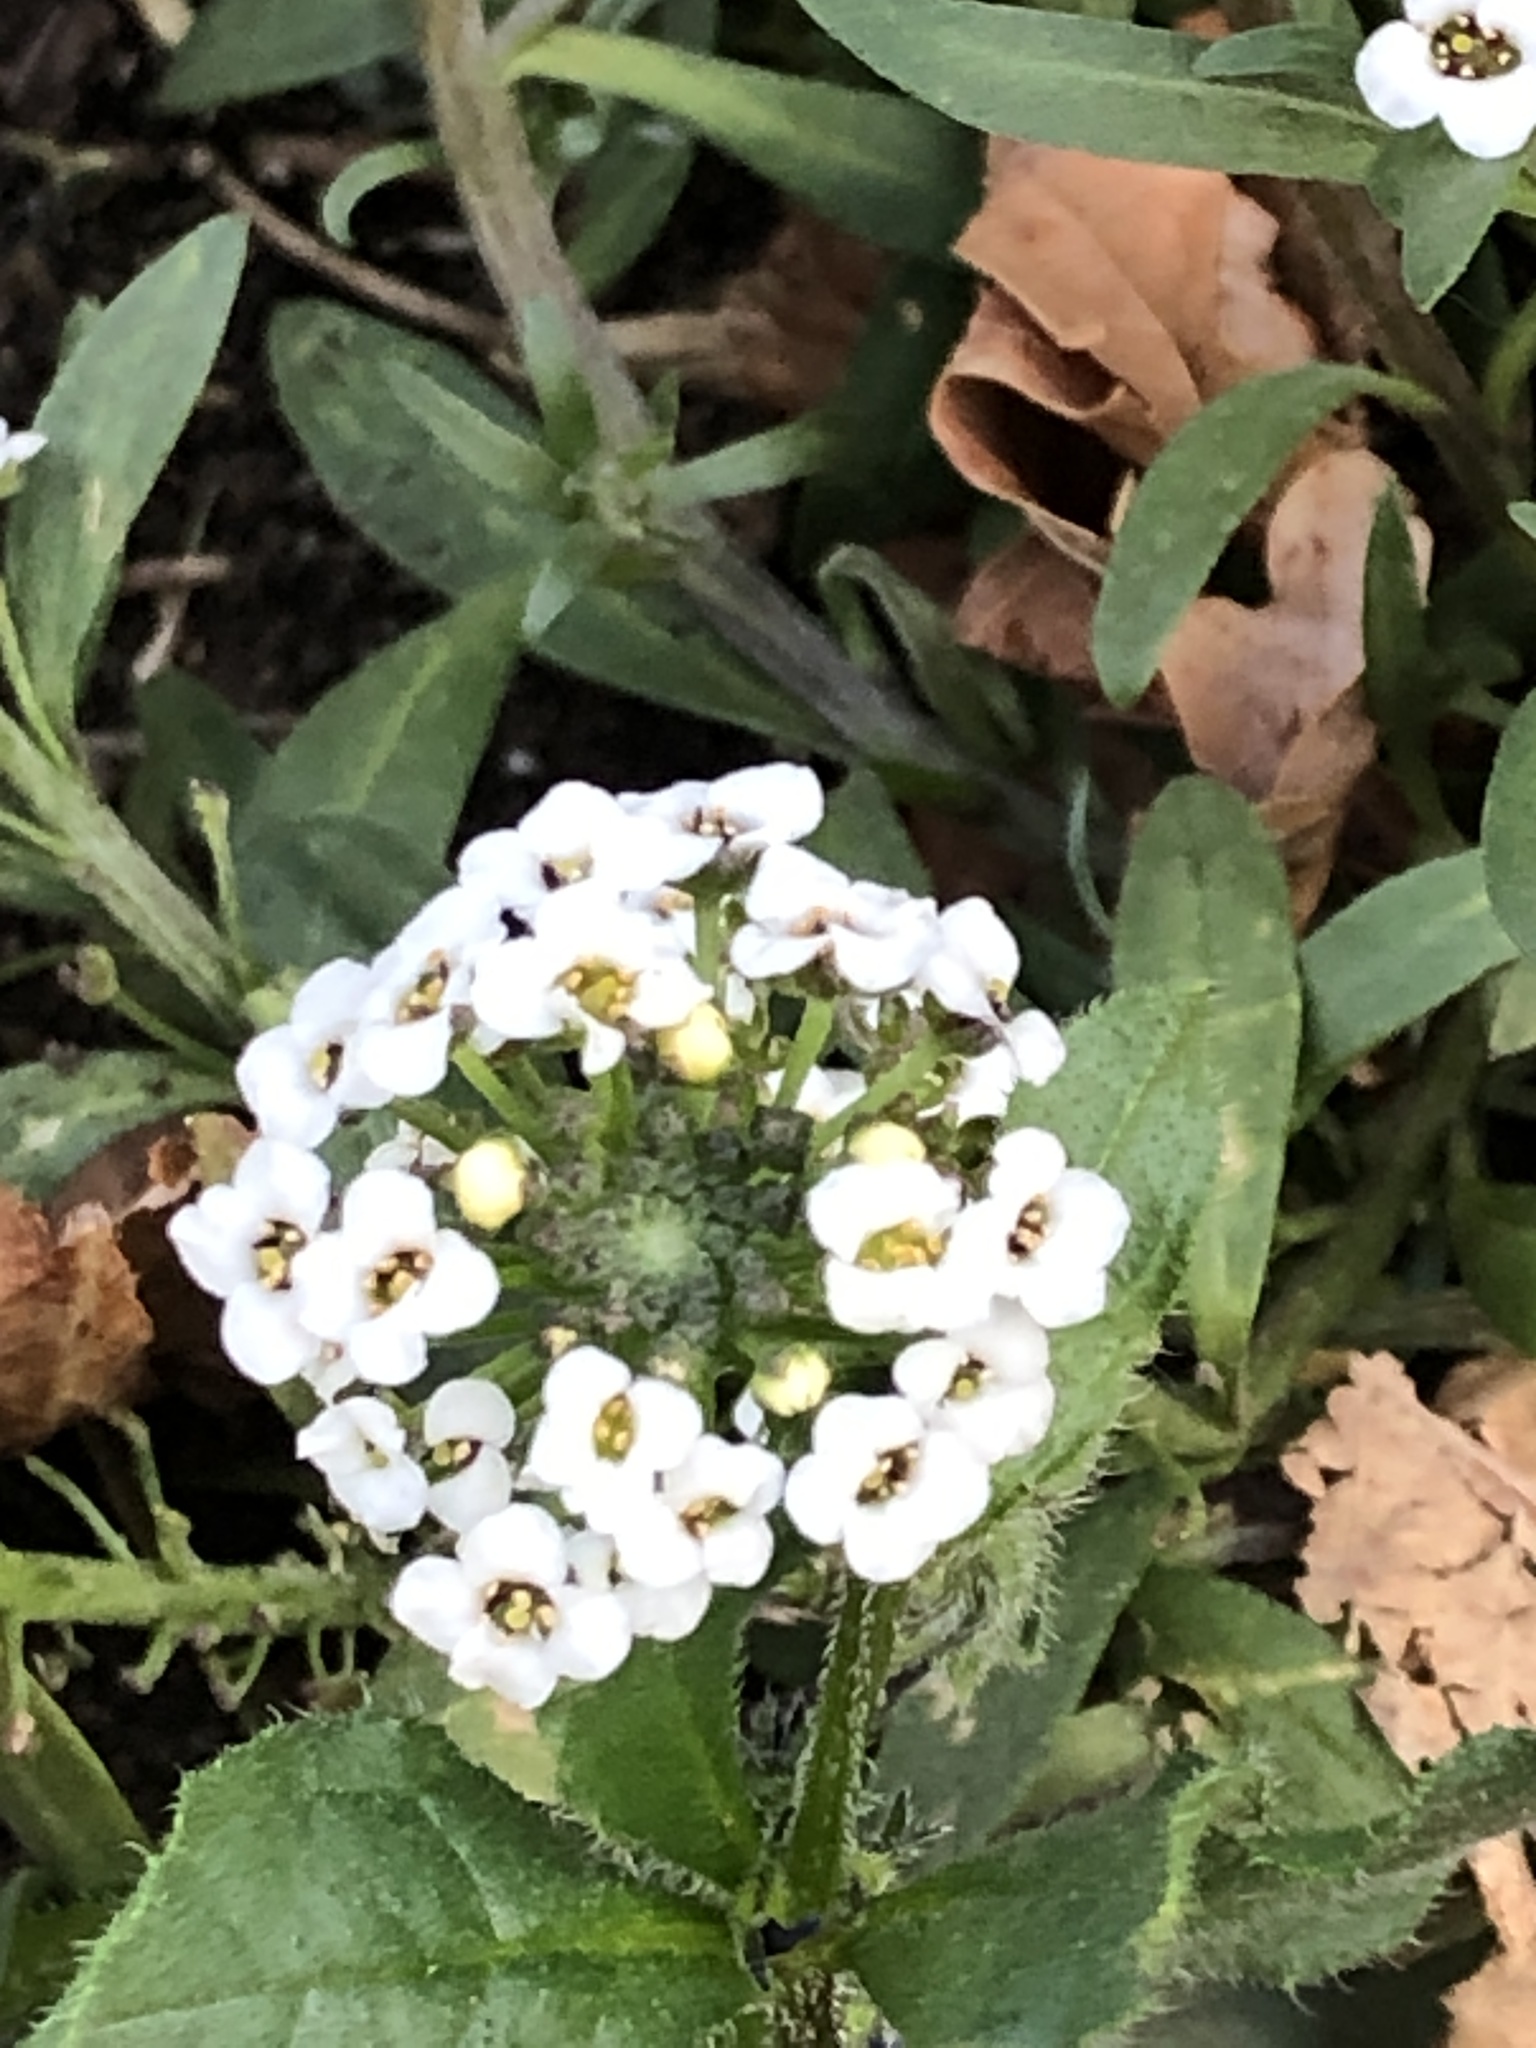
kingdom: Plantae
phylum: Tracheophyta
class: Magnoliopsida
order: Brassicales
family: Brassicaceae
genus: Lobularia
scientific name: Lobularia maritima
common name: Sweet alison
